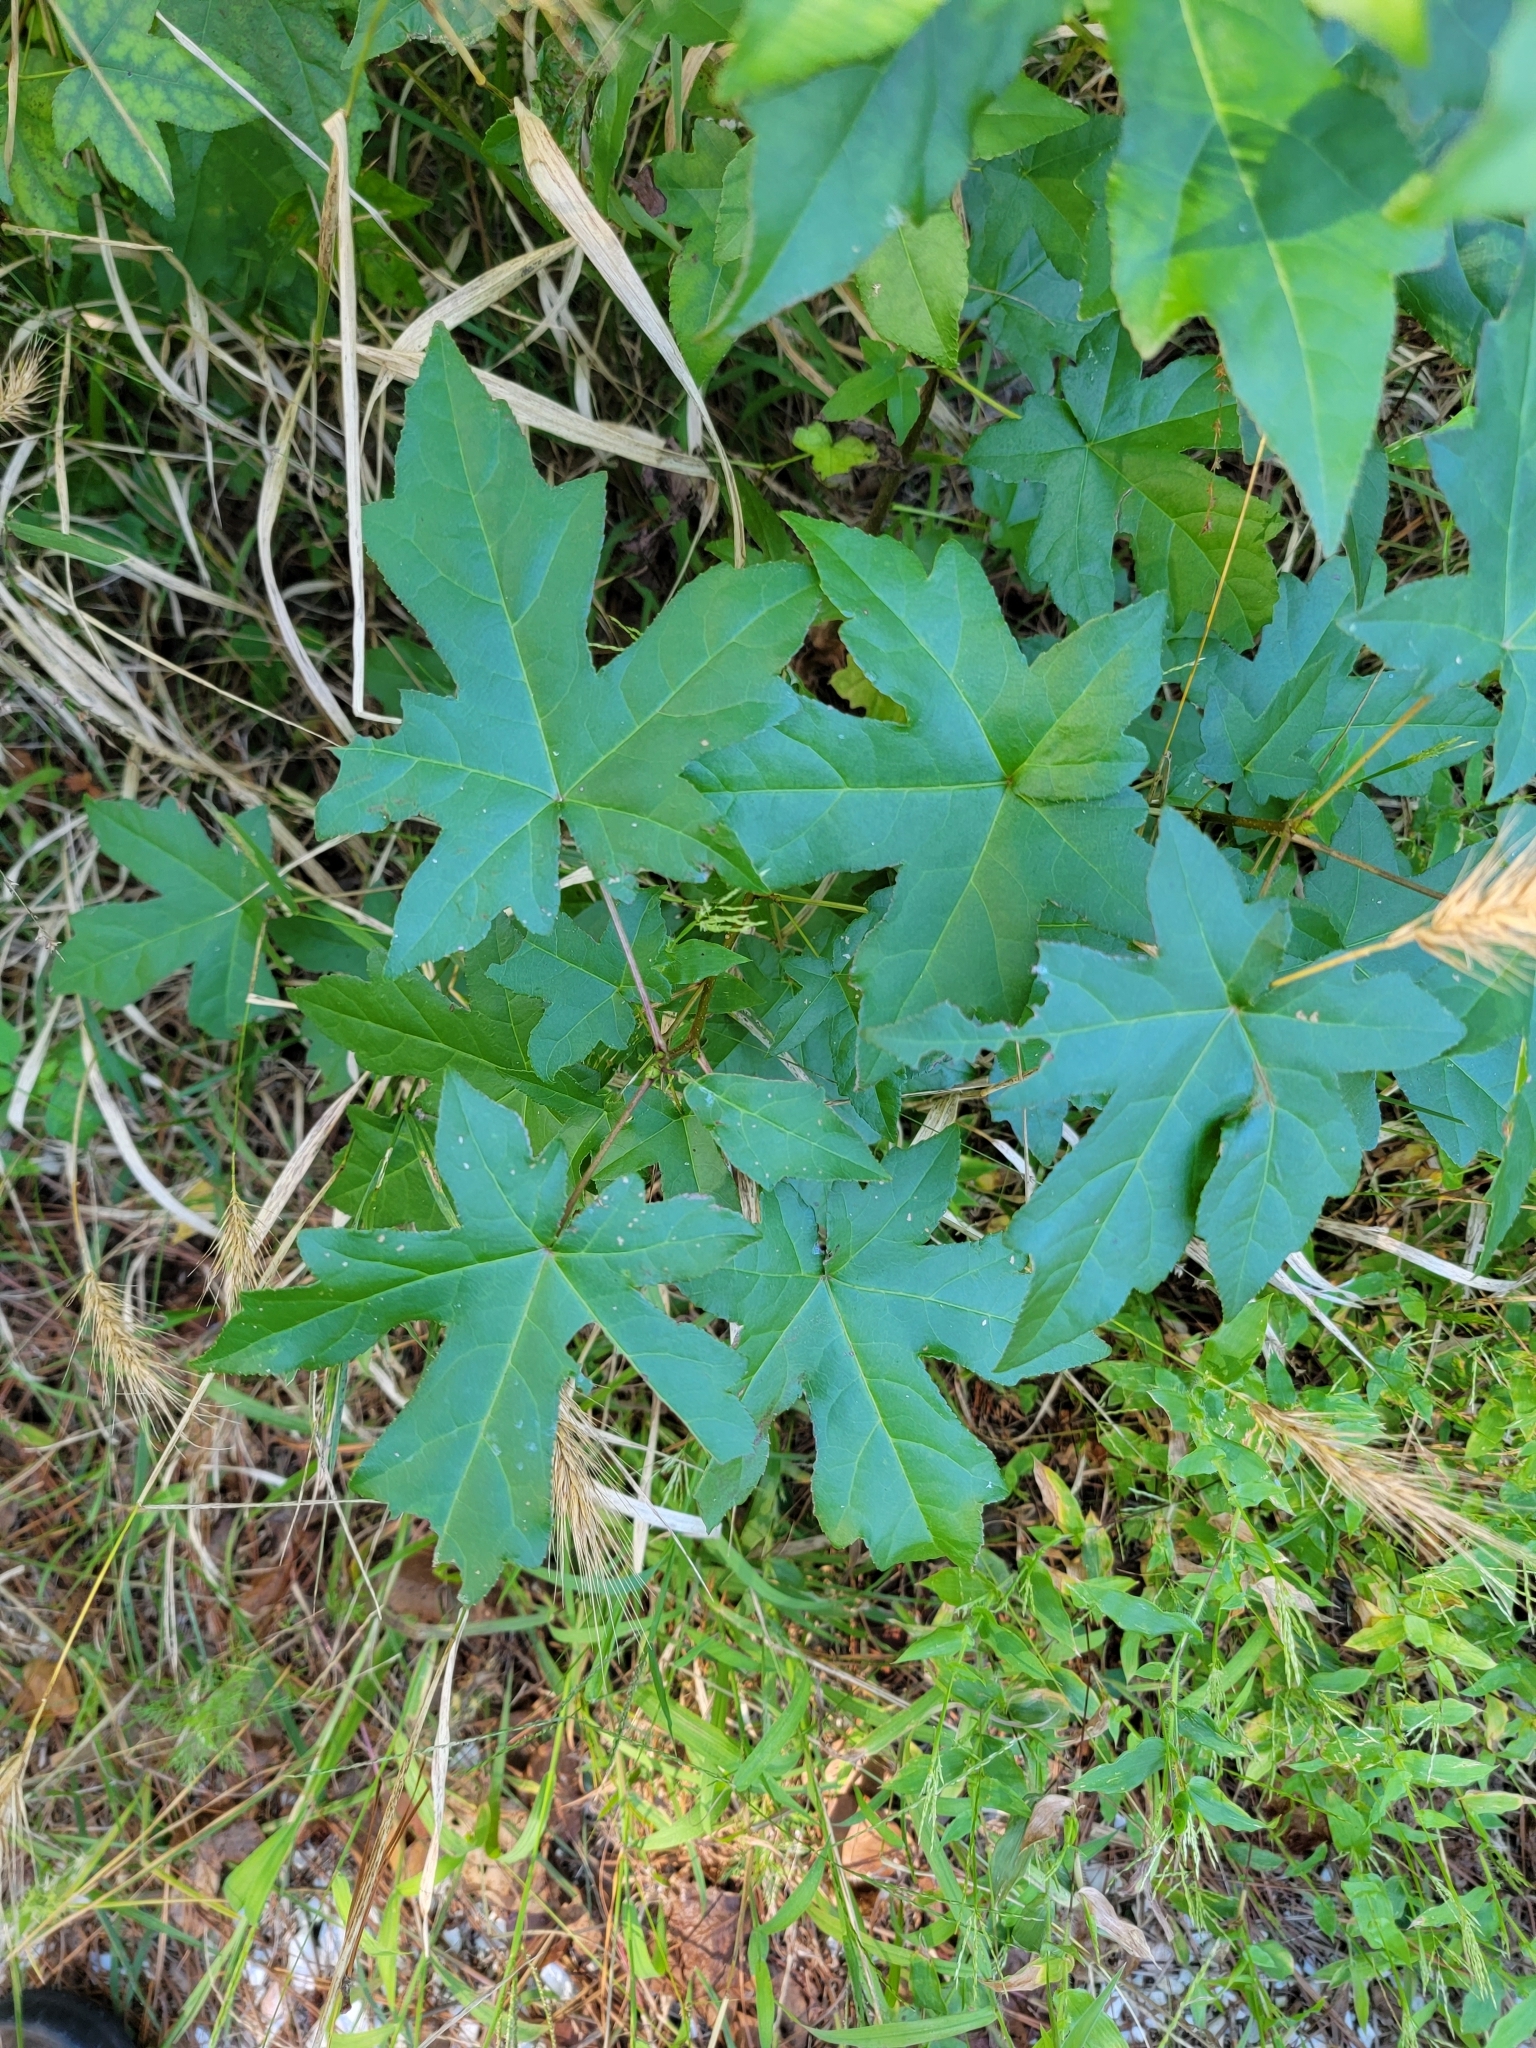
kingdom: Plantae
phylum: Tracheophyta
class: Magnoliopsida
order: Saxifragales
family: Altingiaceae
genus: Liquidambar
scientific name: Liquidambar styraciflua
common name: Sweet gum
